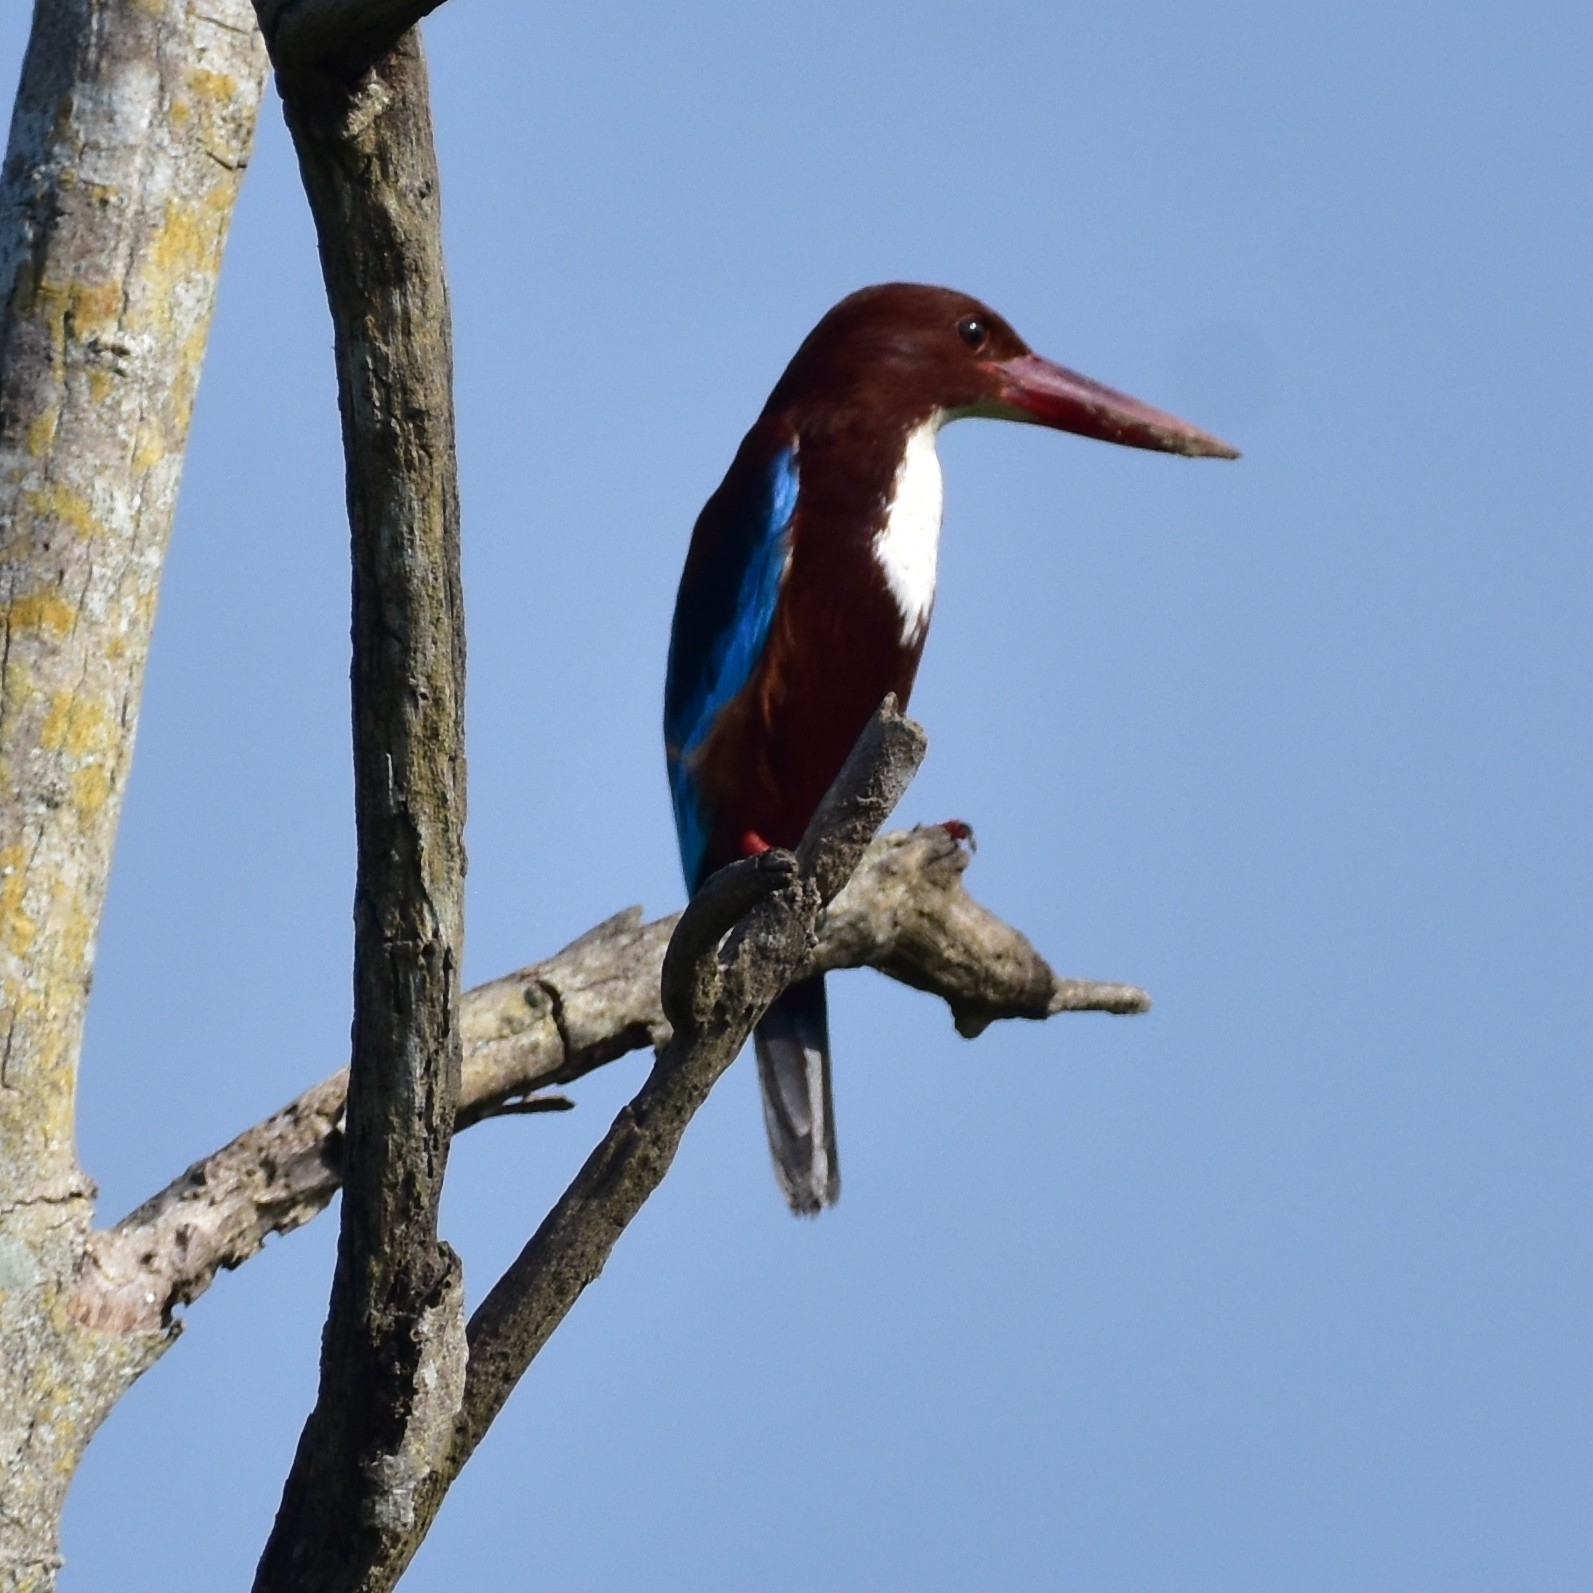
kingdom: Animalia
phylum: Chordata
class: Aves
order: Coraciiformes
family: Alcedinidae
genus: Halcyon
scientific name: Halcyon smyrnensis
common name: White-throated kingfisher
